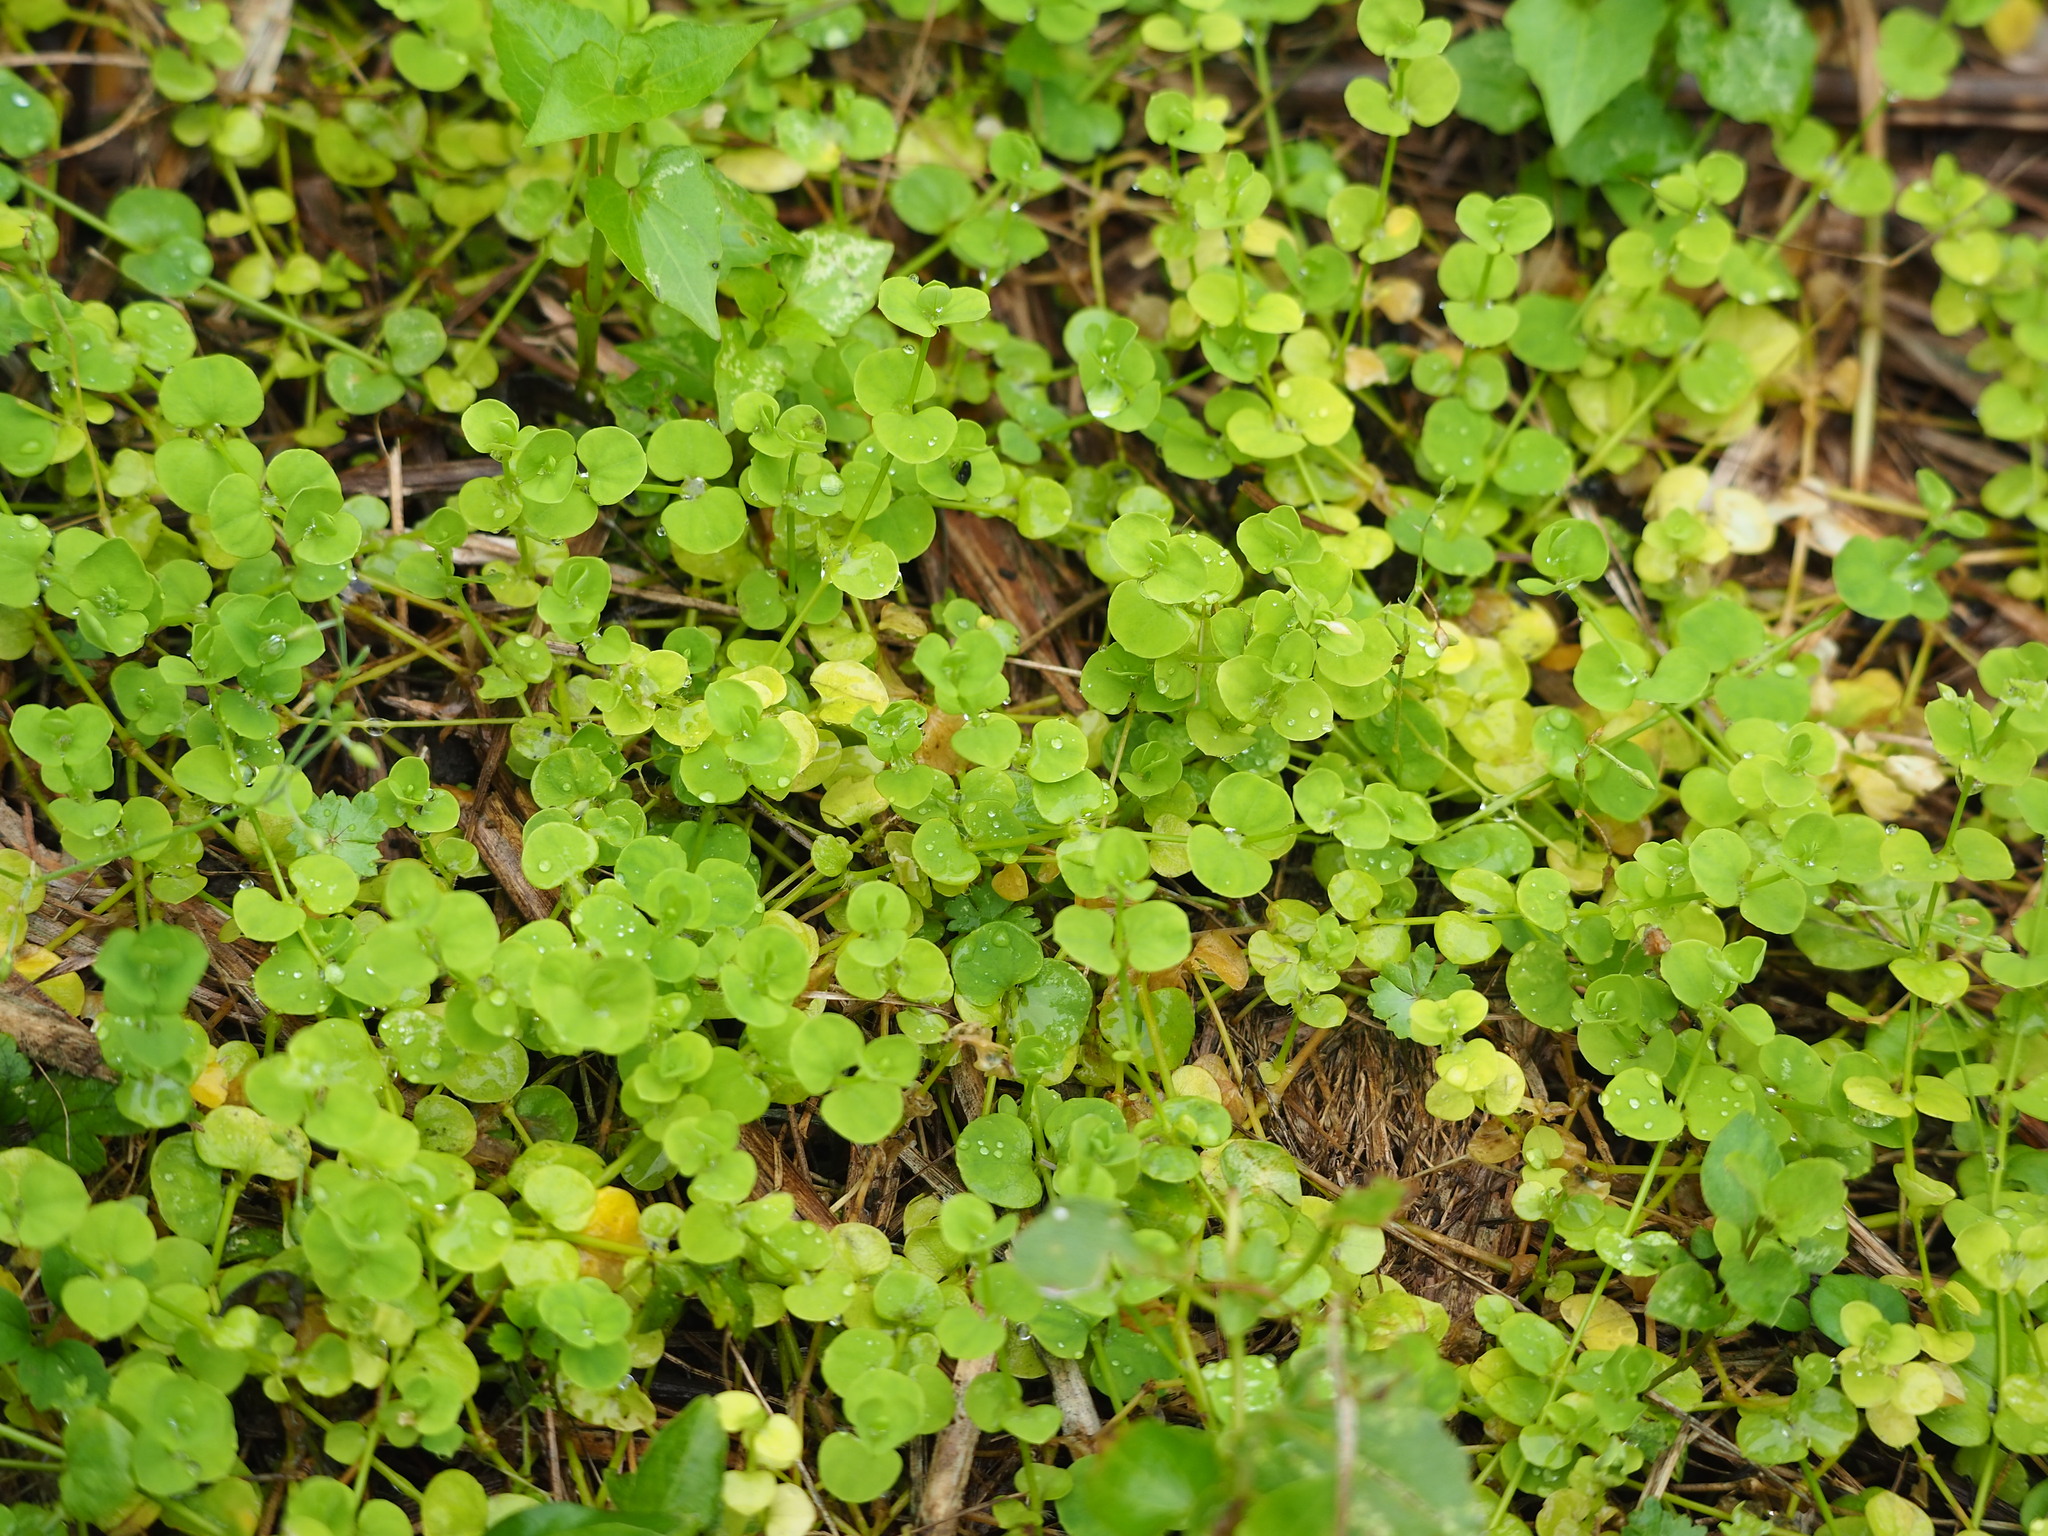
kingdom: Plantae
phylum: Tracheophyta
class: Magnoliopsida
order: Caryophyllales
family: Caryophyllaceae
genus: Drymaria
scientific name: Drymaria cordata
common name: Whitesnow
